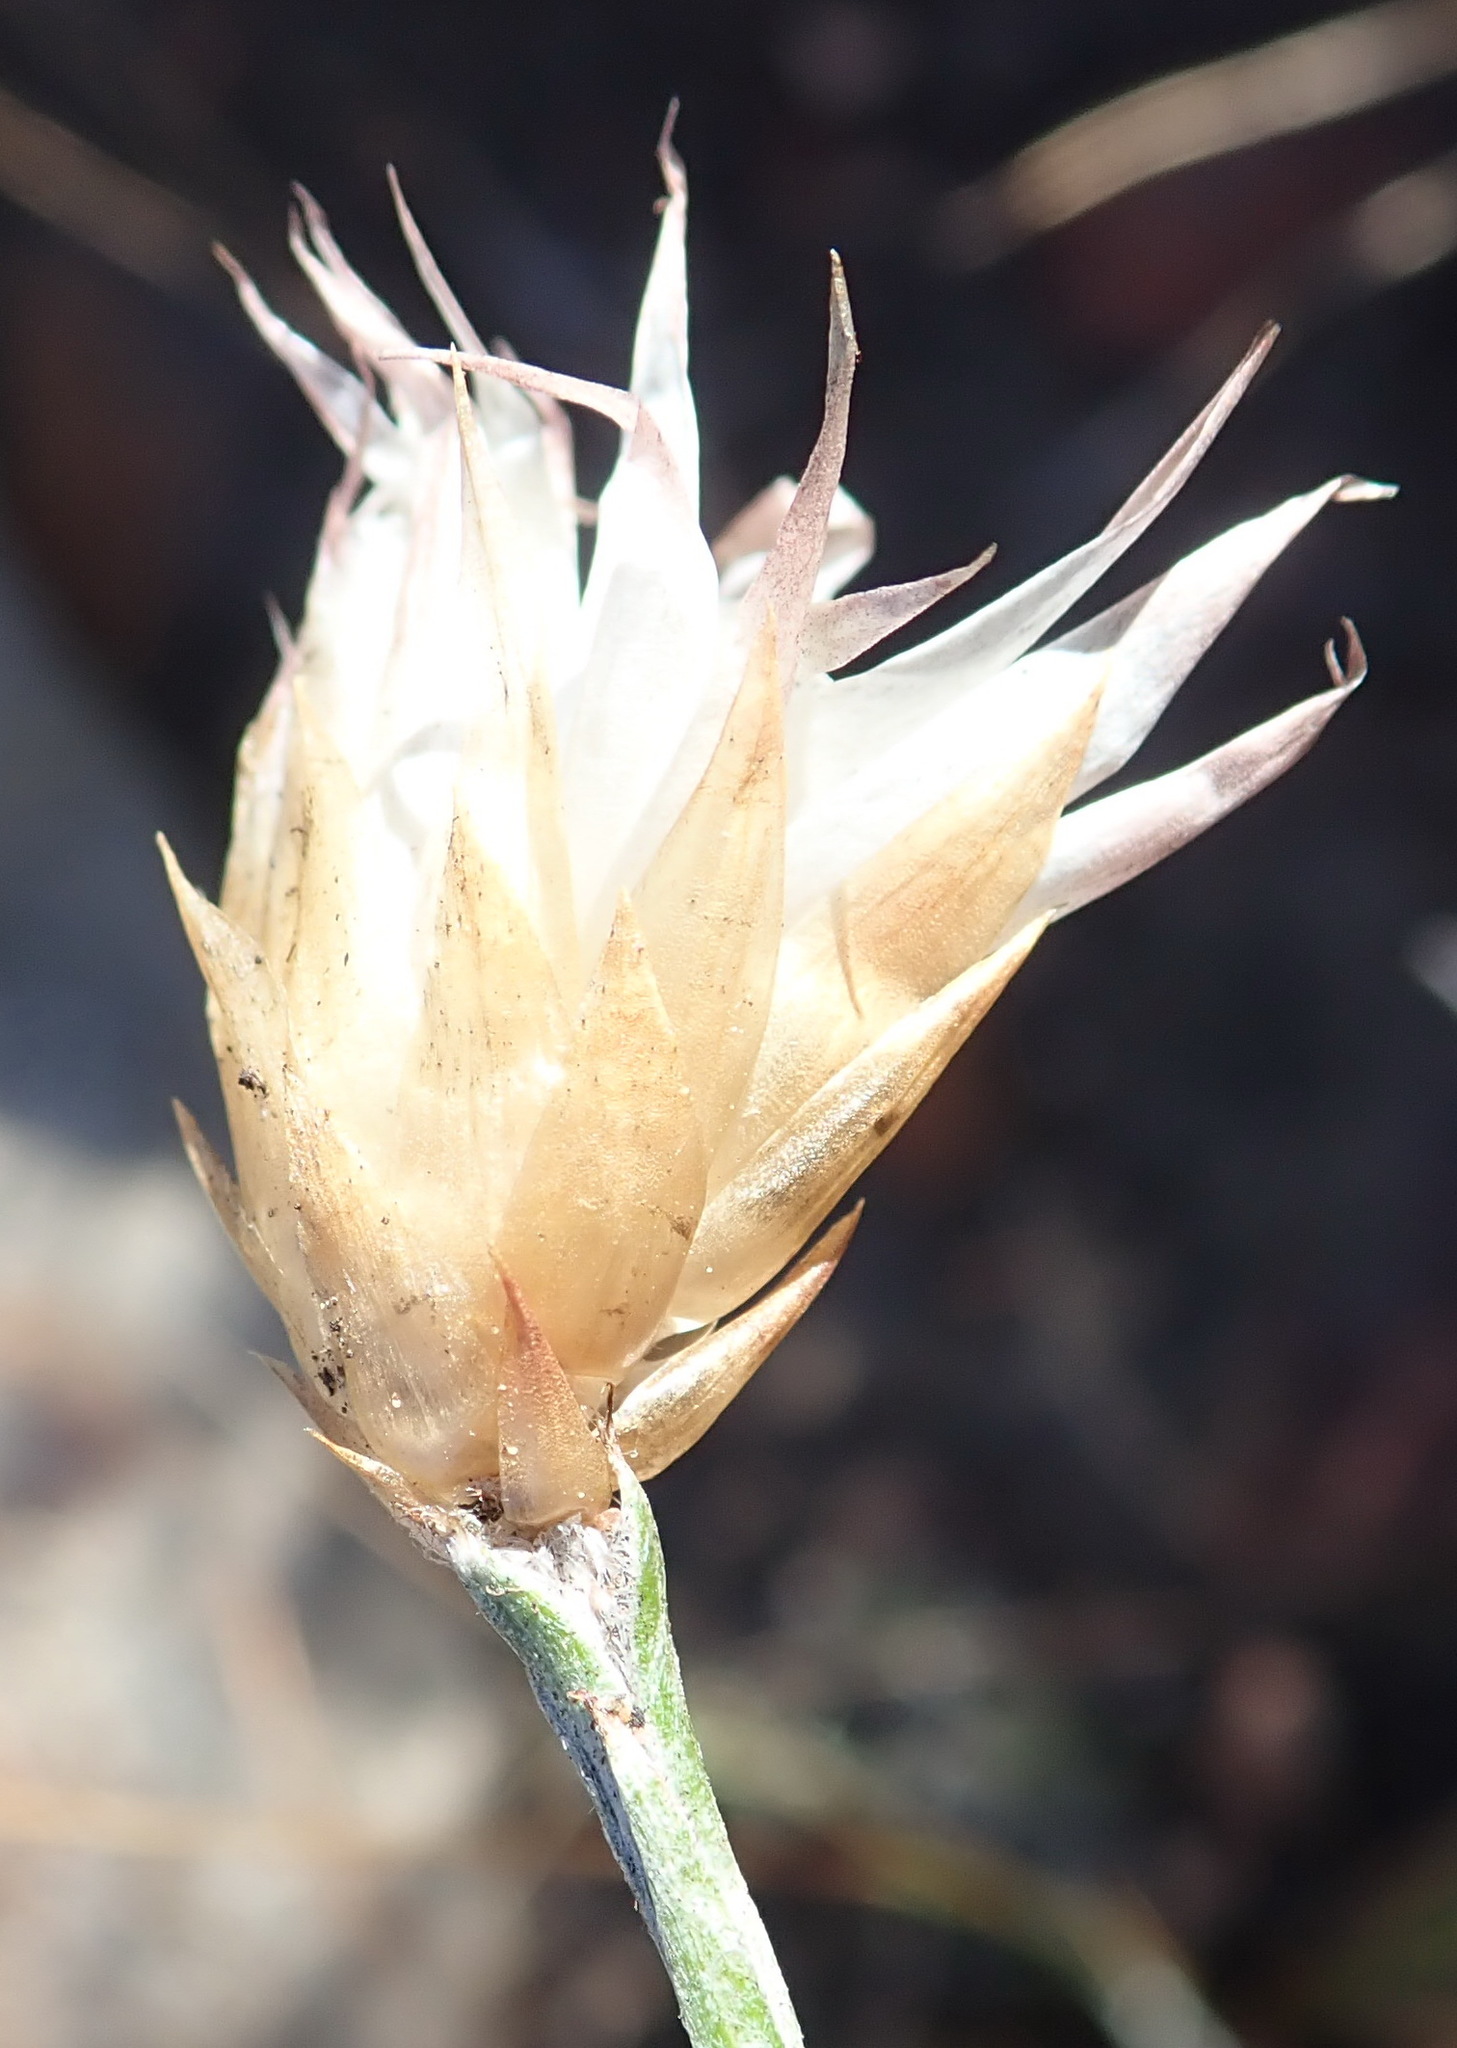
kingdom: Plantae
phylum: Tracheophyta
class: Magnoliopsida
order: Asterales
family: Asteraceae
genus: Syncarpha
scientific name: Syncarpha canescens
